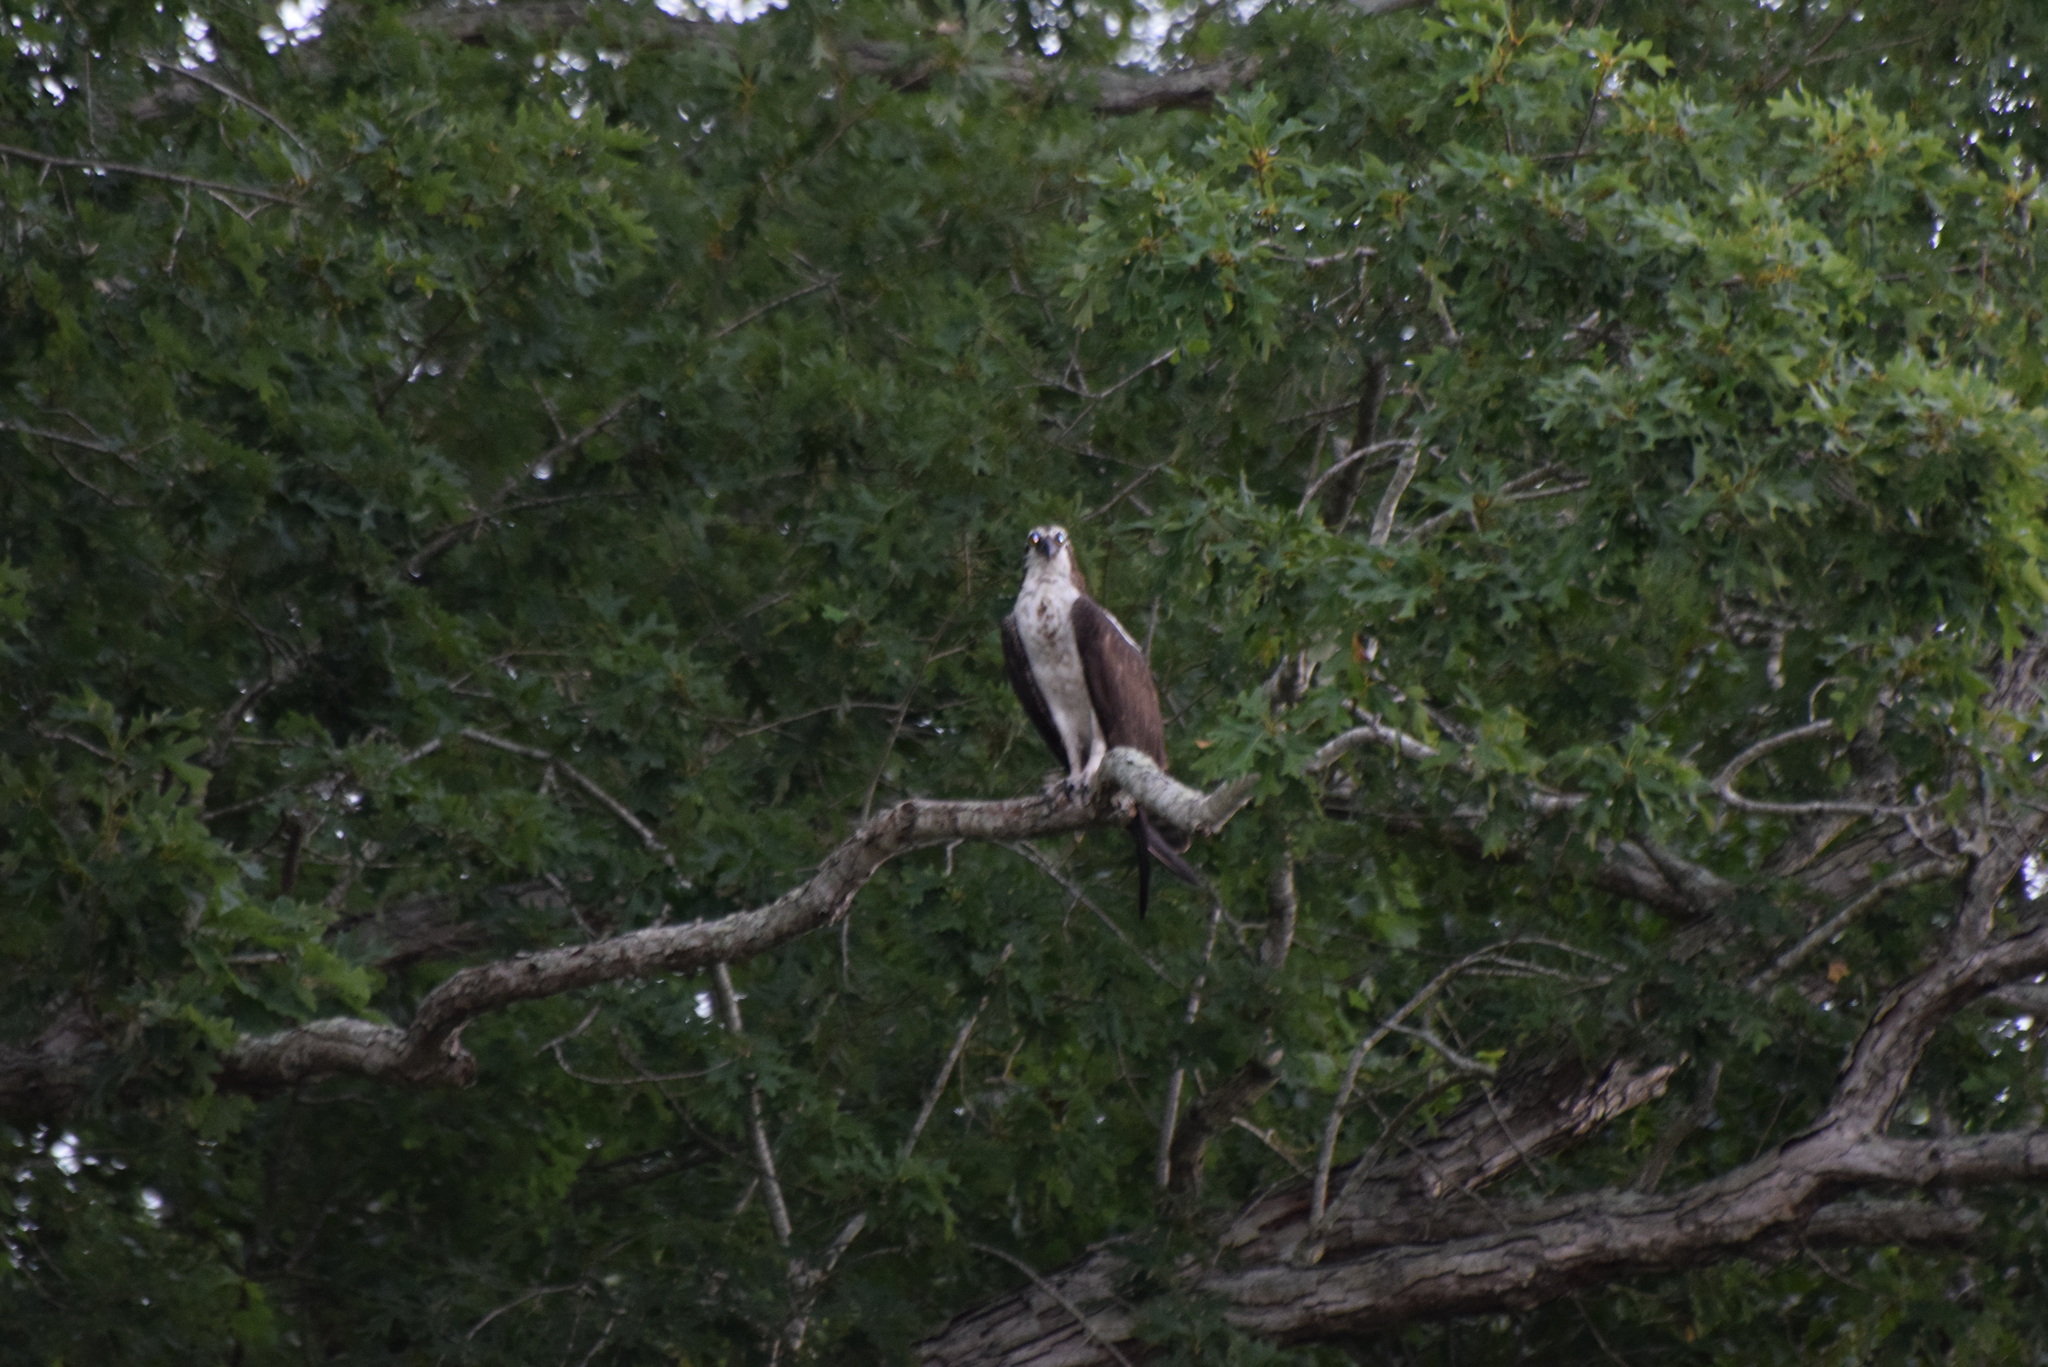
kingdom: Animalia
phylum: Chordata
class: Aves
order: Accipitriformes
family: Pandionidae
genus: Pandion
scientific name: Pandion haliaetus
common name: Osprey
